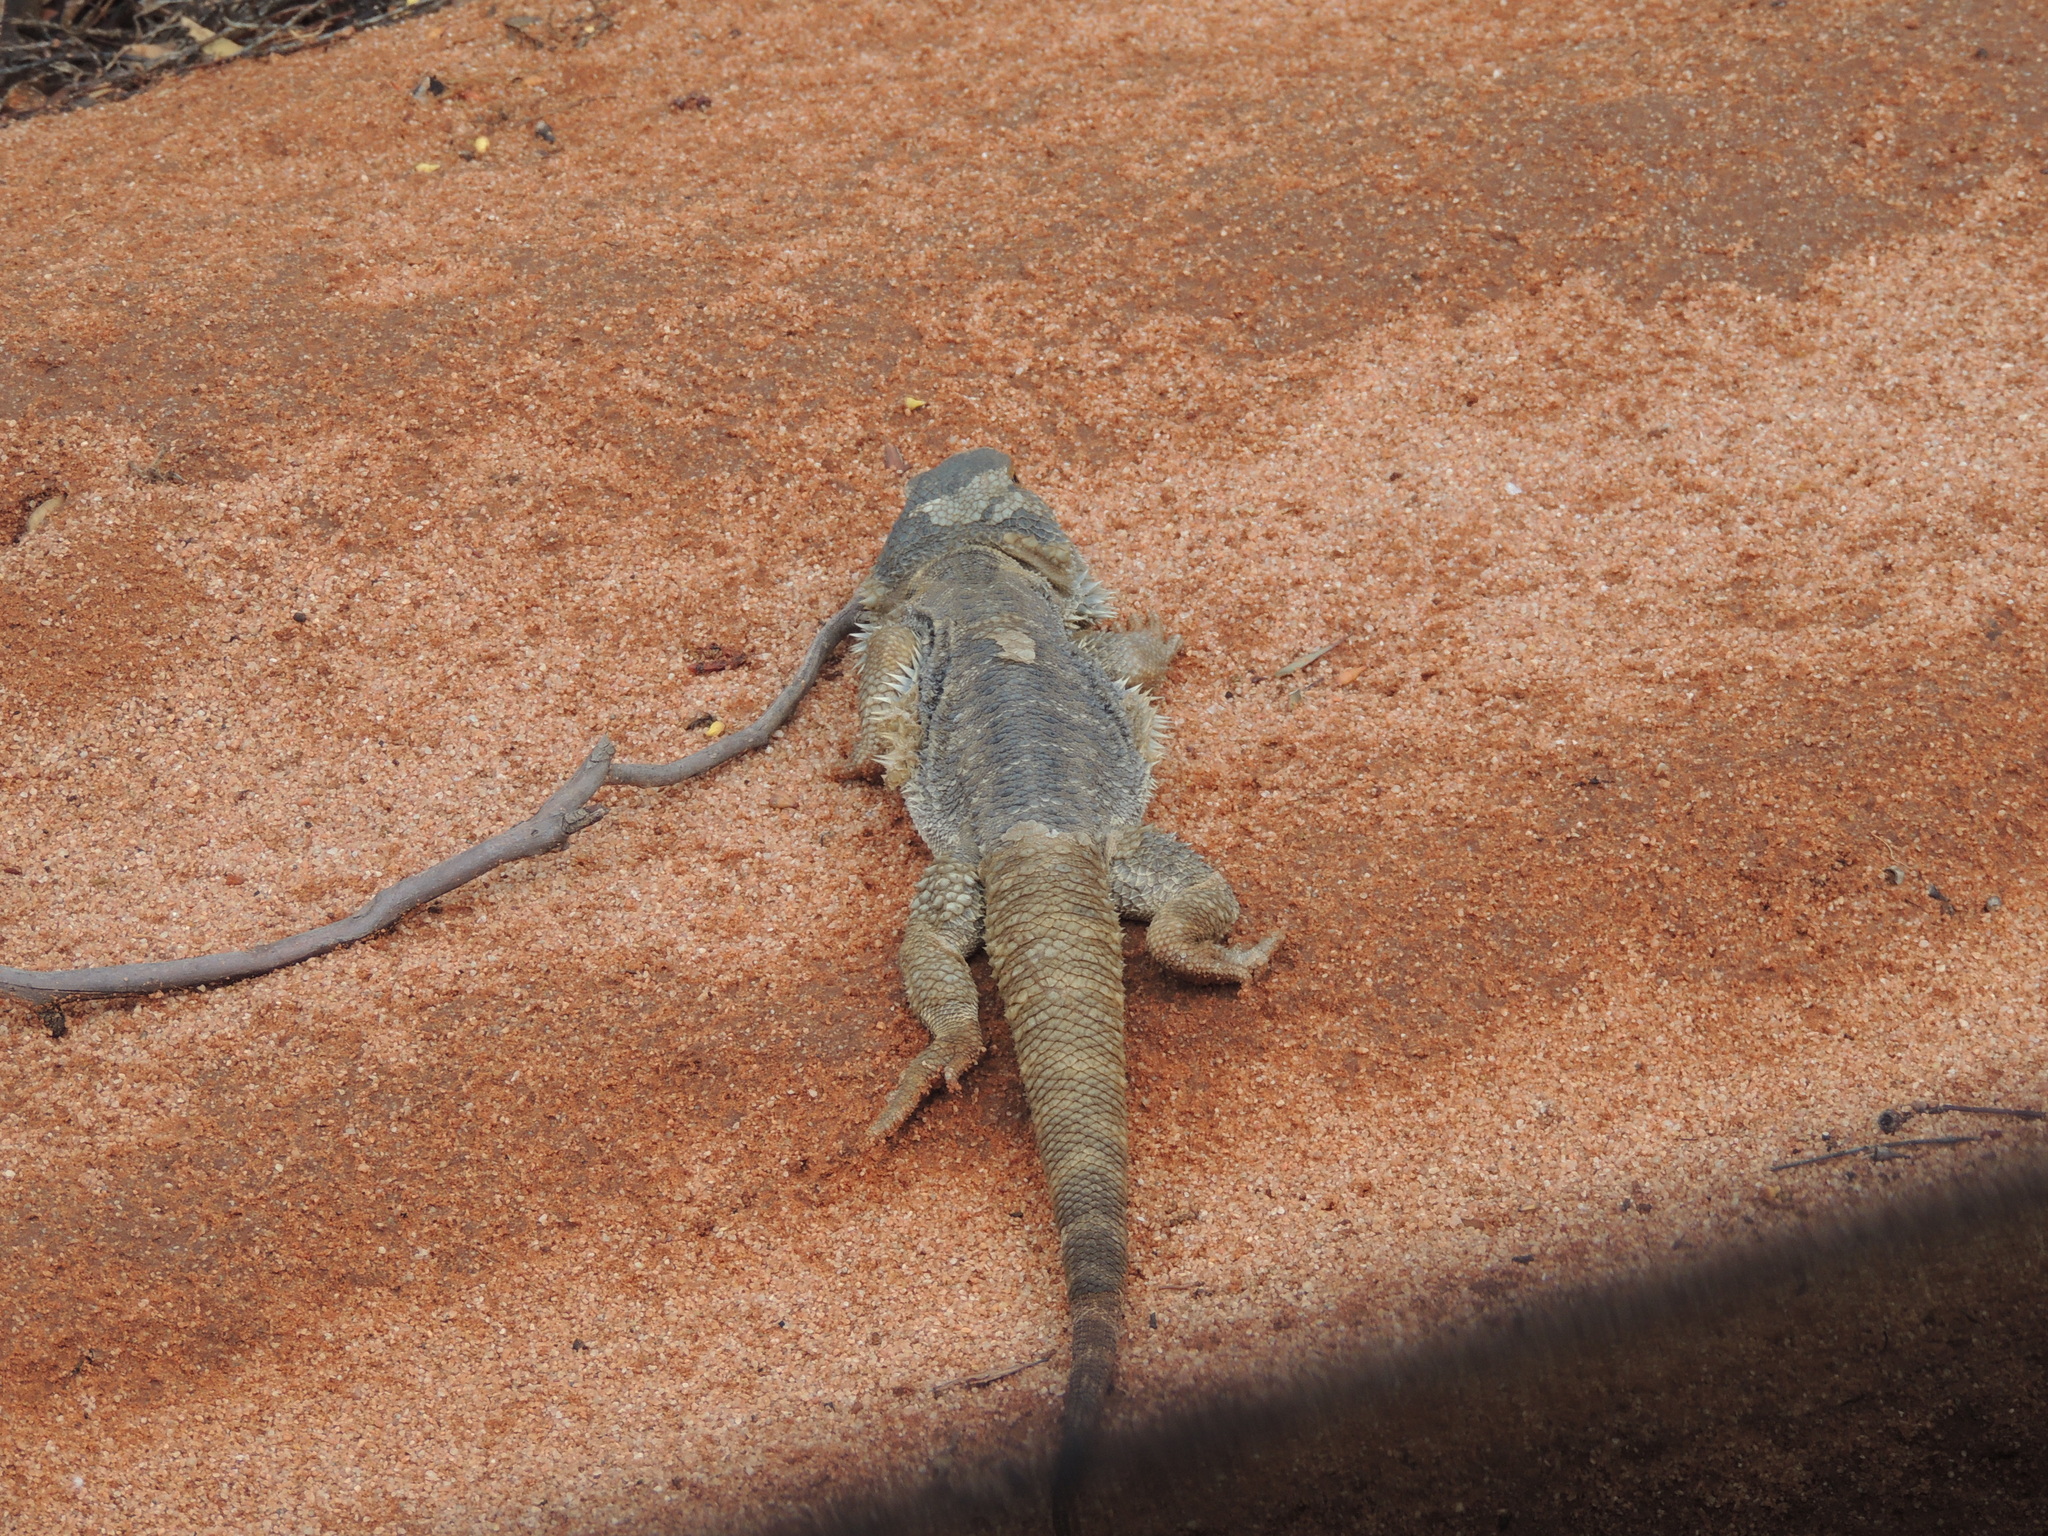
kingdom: Animalia
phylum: Chordata
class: Squamata
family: Agamidae
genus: Pogona
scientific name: Pogona vitticeps
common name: Central bearded dragon
